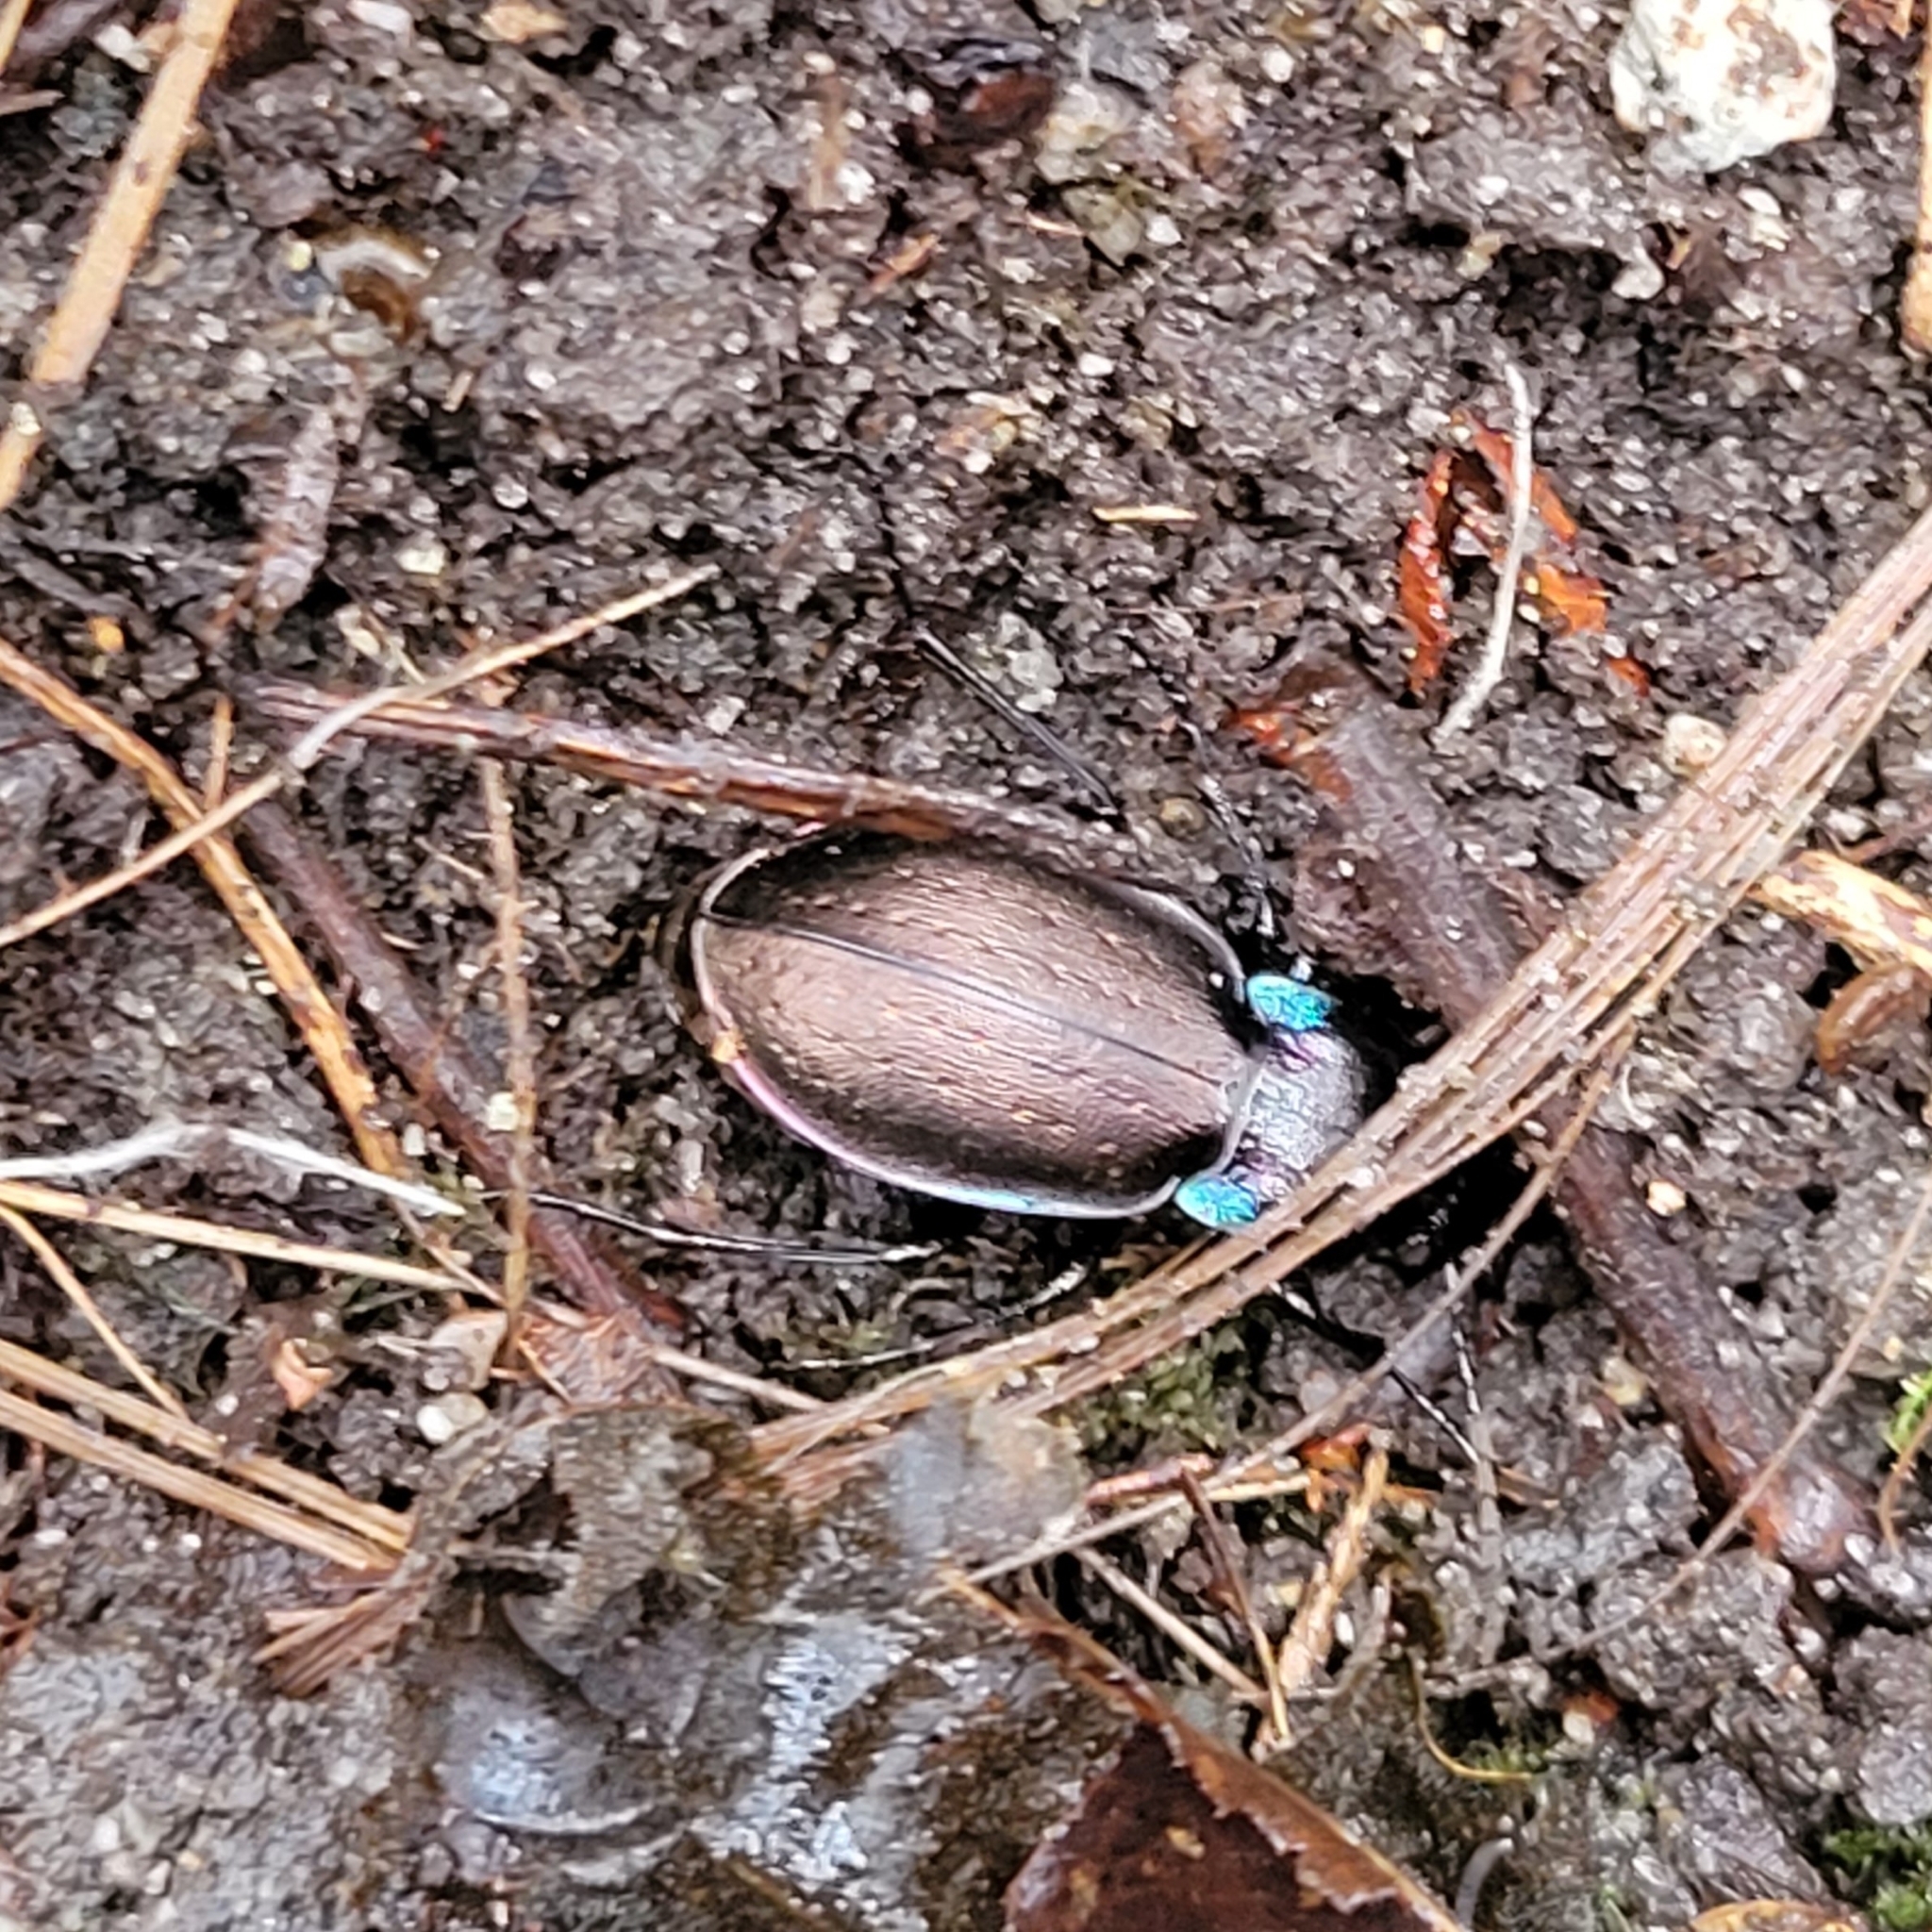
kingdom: Animalia
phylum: Arthropoda
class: Insecta
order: Coleoptera
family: Carabidae
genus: Carabus
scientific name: Carabus nemoralis
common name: European ground beetle
